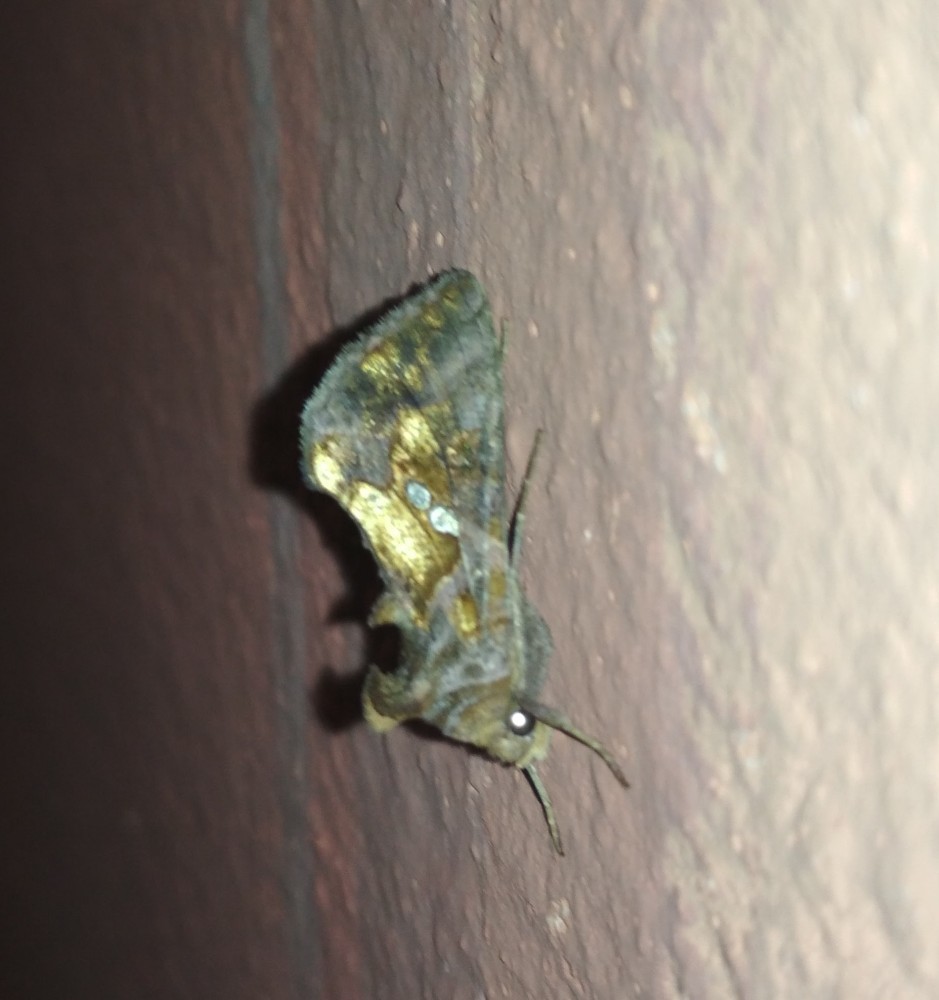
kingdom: Animalia
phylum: Arthropoda
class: Insecta
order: Lepidoptera
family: Noctuidae
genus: Chrysodeixis
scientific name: Chrysodeixis chalcites
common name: Golden twin-spot
